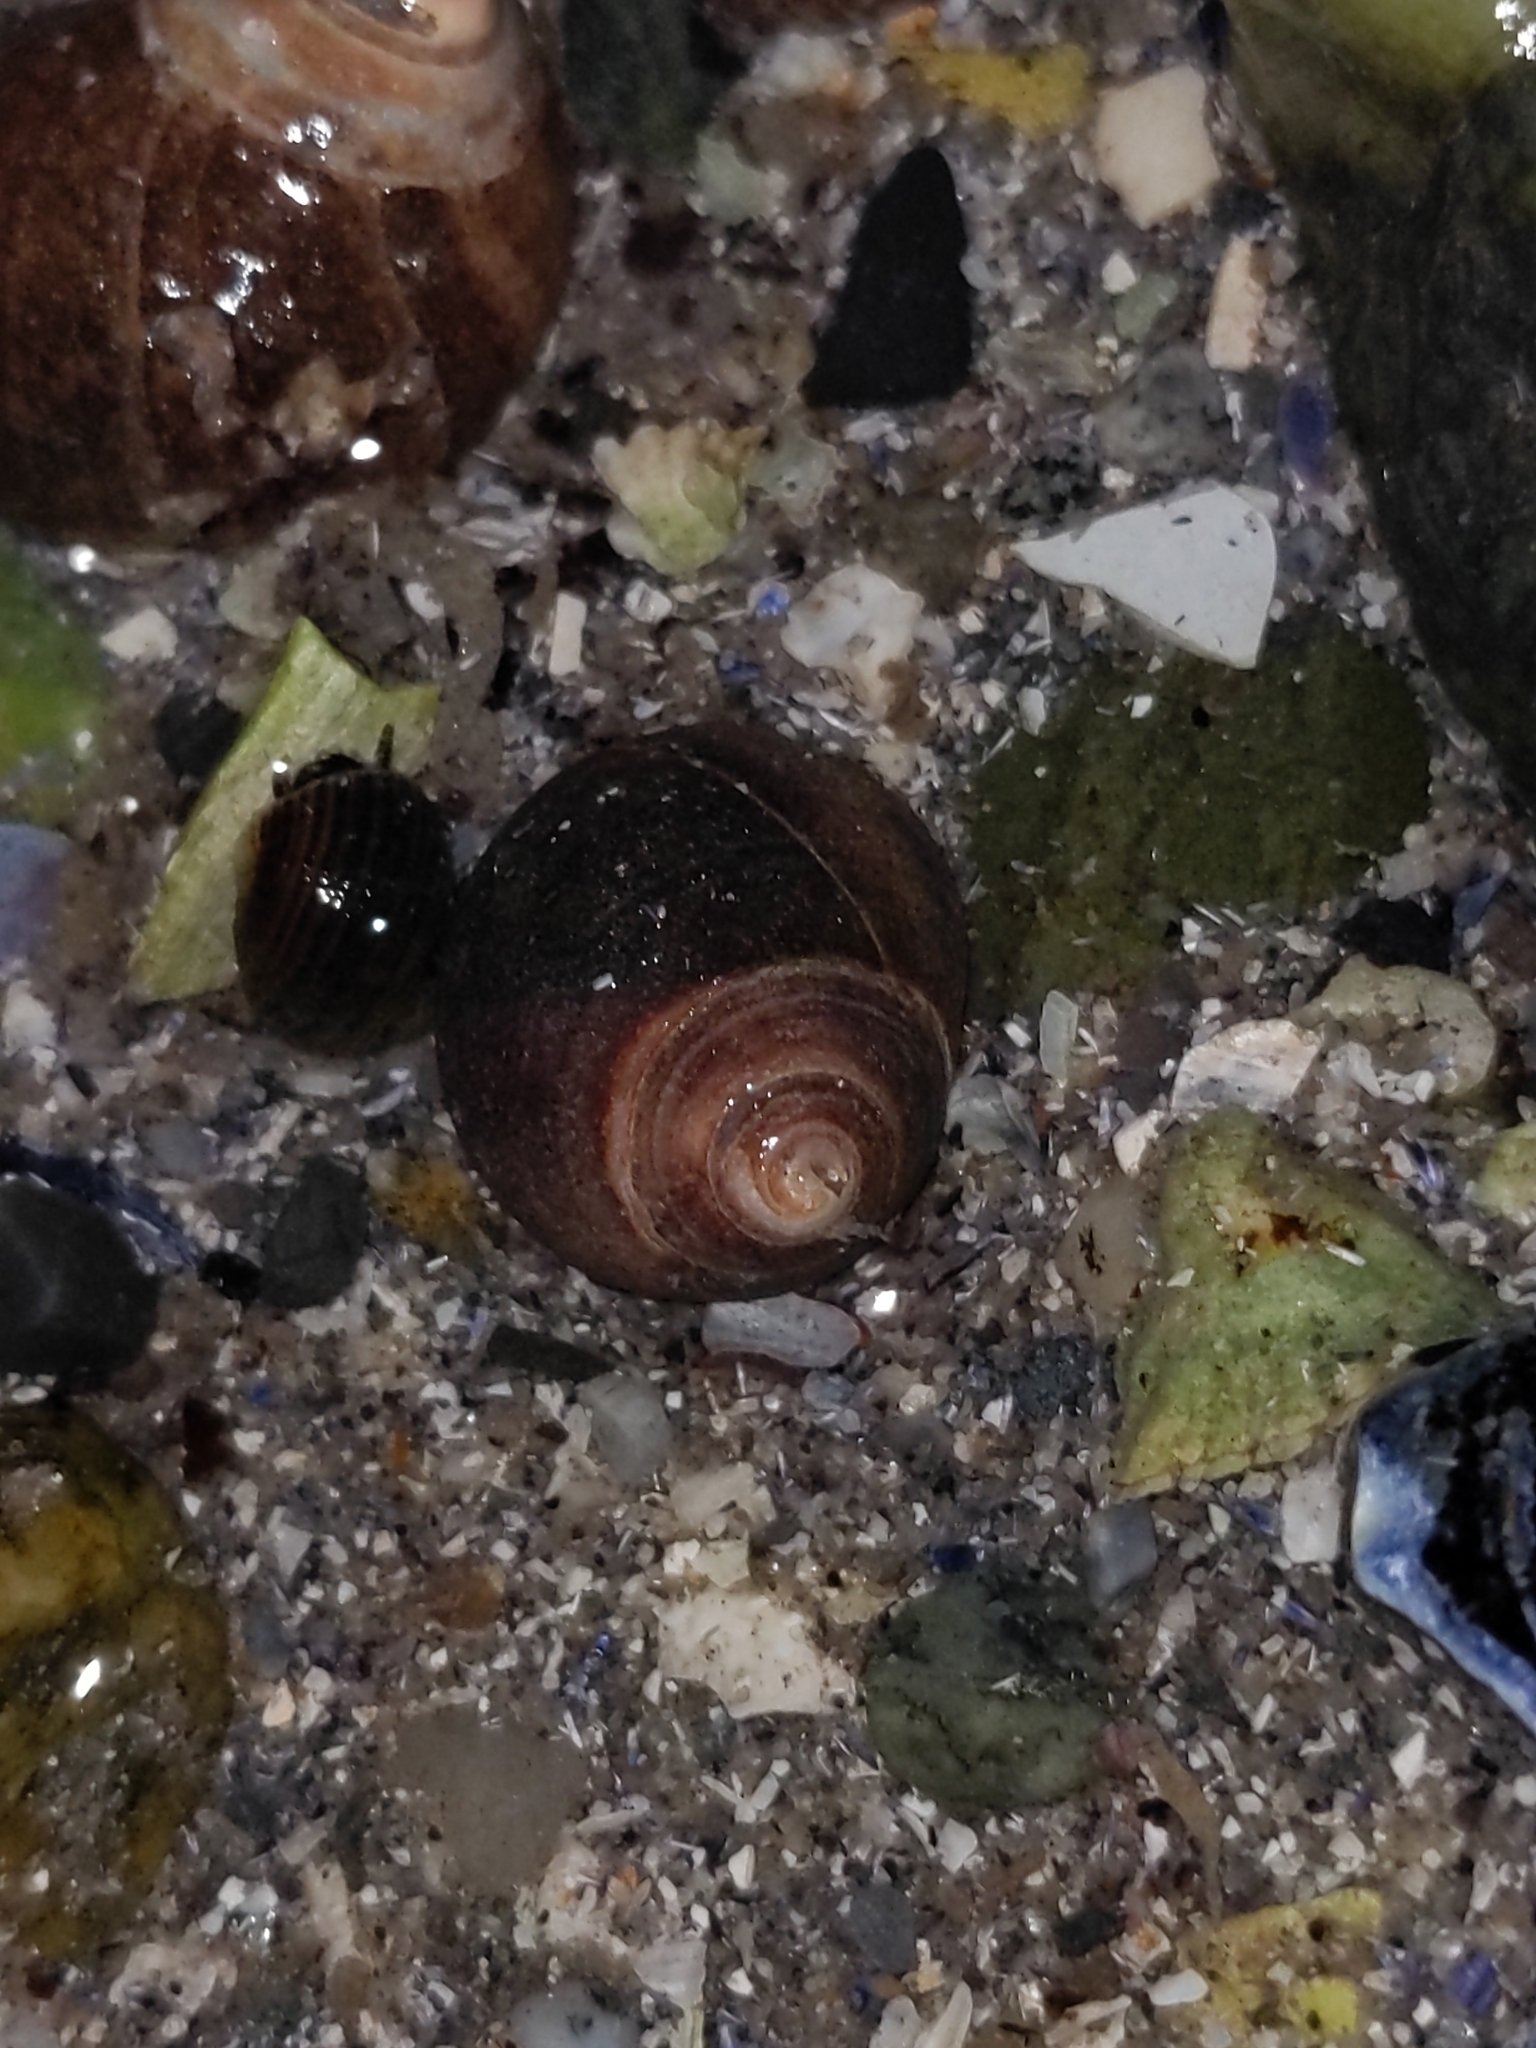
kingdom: Animalia
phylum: Mollusca
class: Gastropoda
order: Littorinimorpha
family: Littorinidae
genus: Littorina
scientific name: Littorina littorea
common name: Common periwinkle
